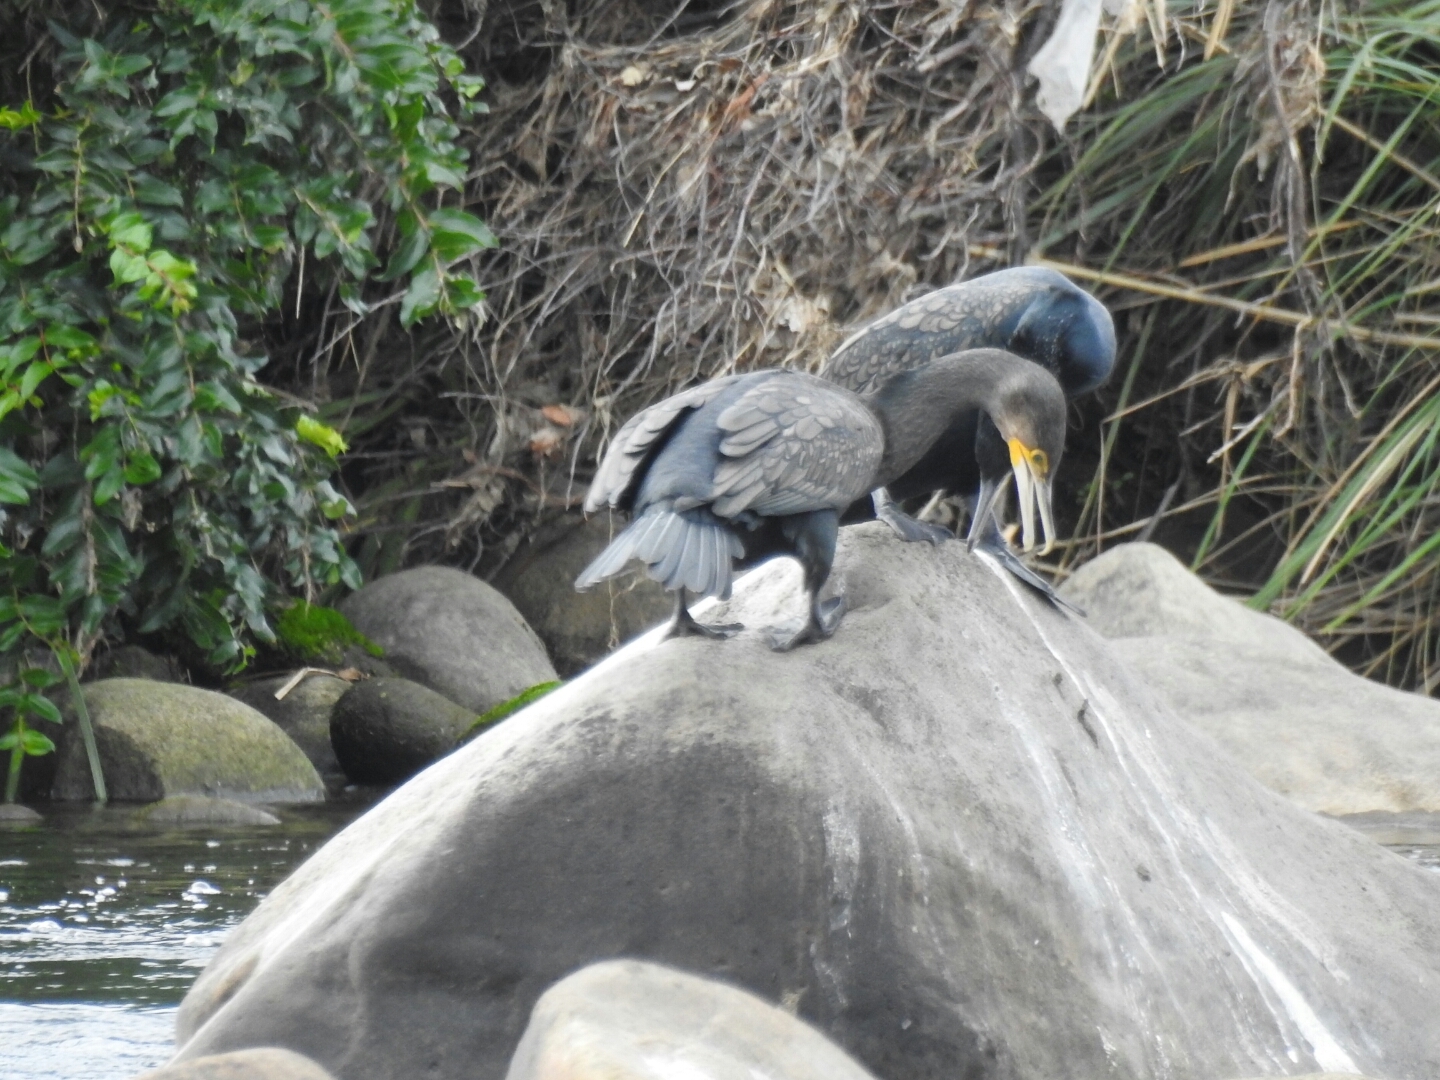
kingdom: Animalia
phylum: Chordata
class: Aves
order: Suliformes
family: Phalacrocoracidae
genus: Phalacrocorax
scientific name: Phalacrocorax carbo
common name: Great cormorant
